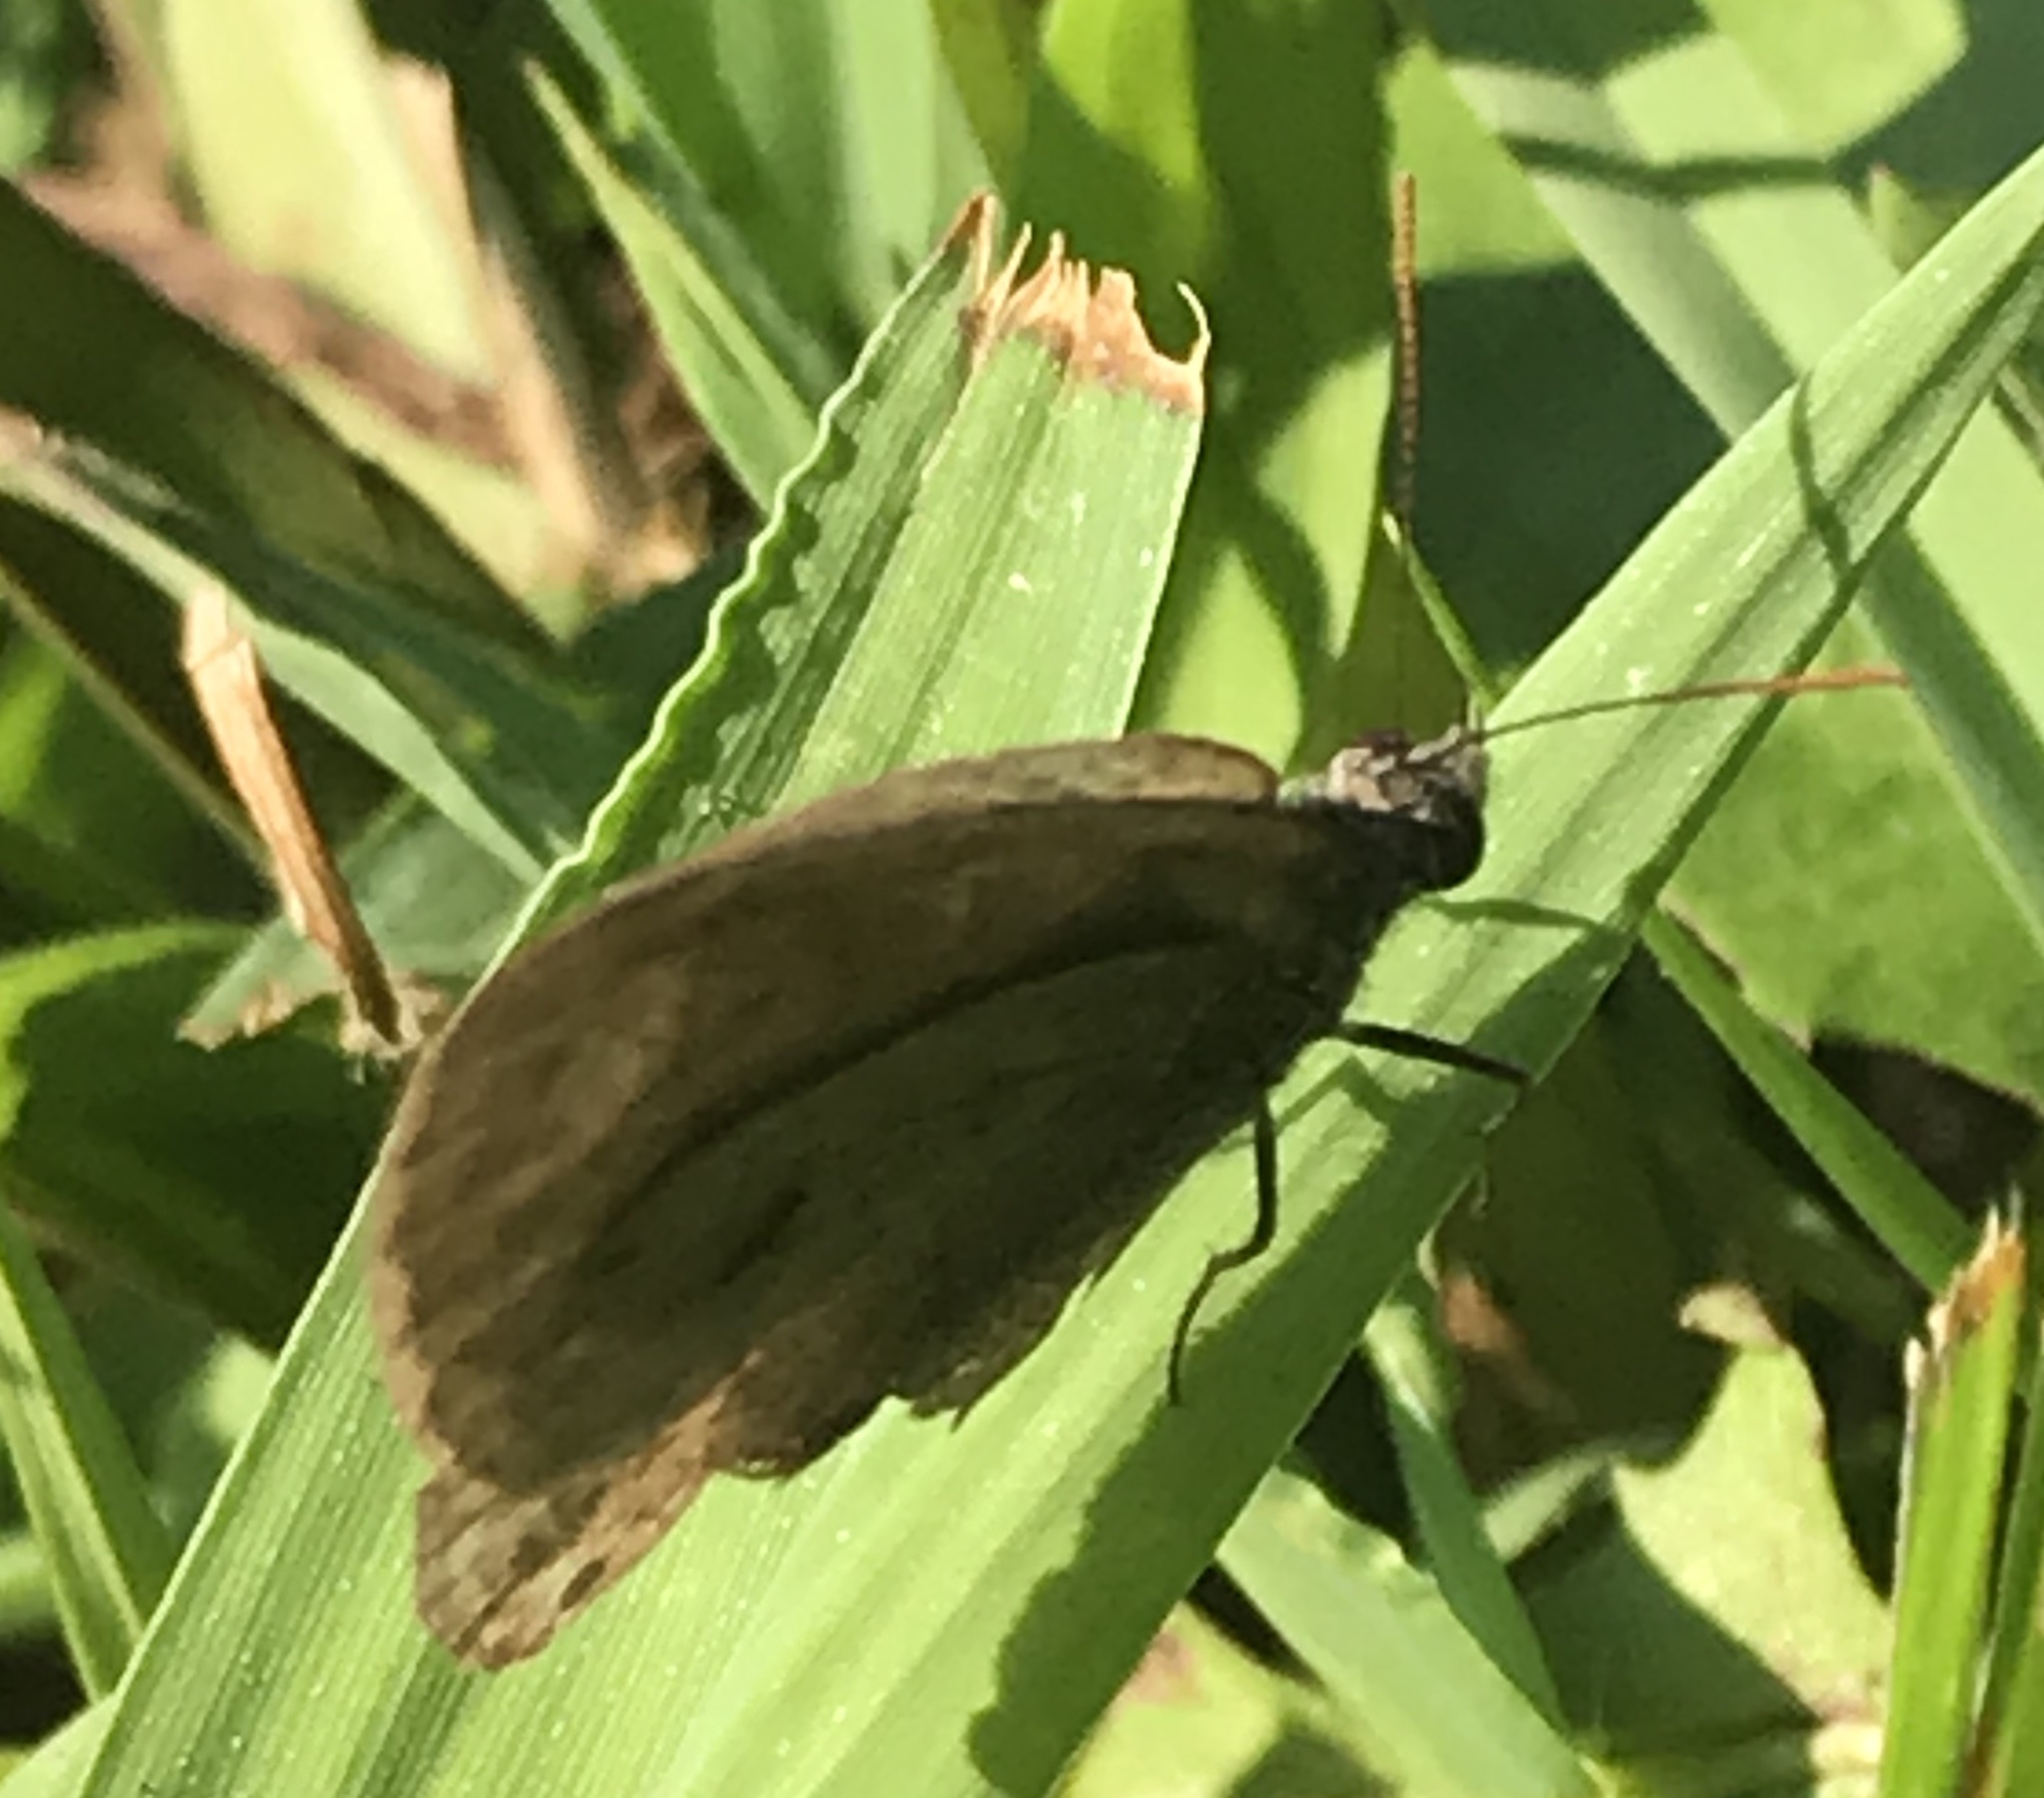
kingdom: Animalia
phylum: Arthropoda
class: Insecta
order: Lepidoptera
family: Nymphalidae
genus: Hermeuptychia
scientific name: Hermeuptychia hermes
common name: Hermes satyr
